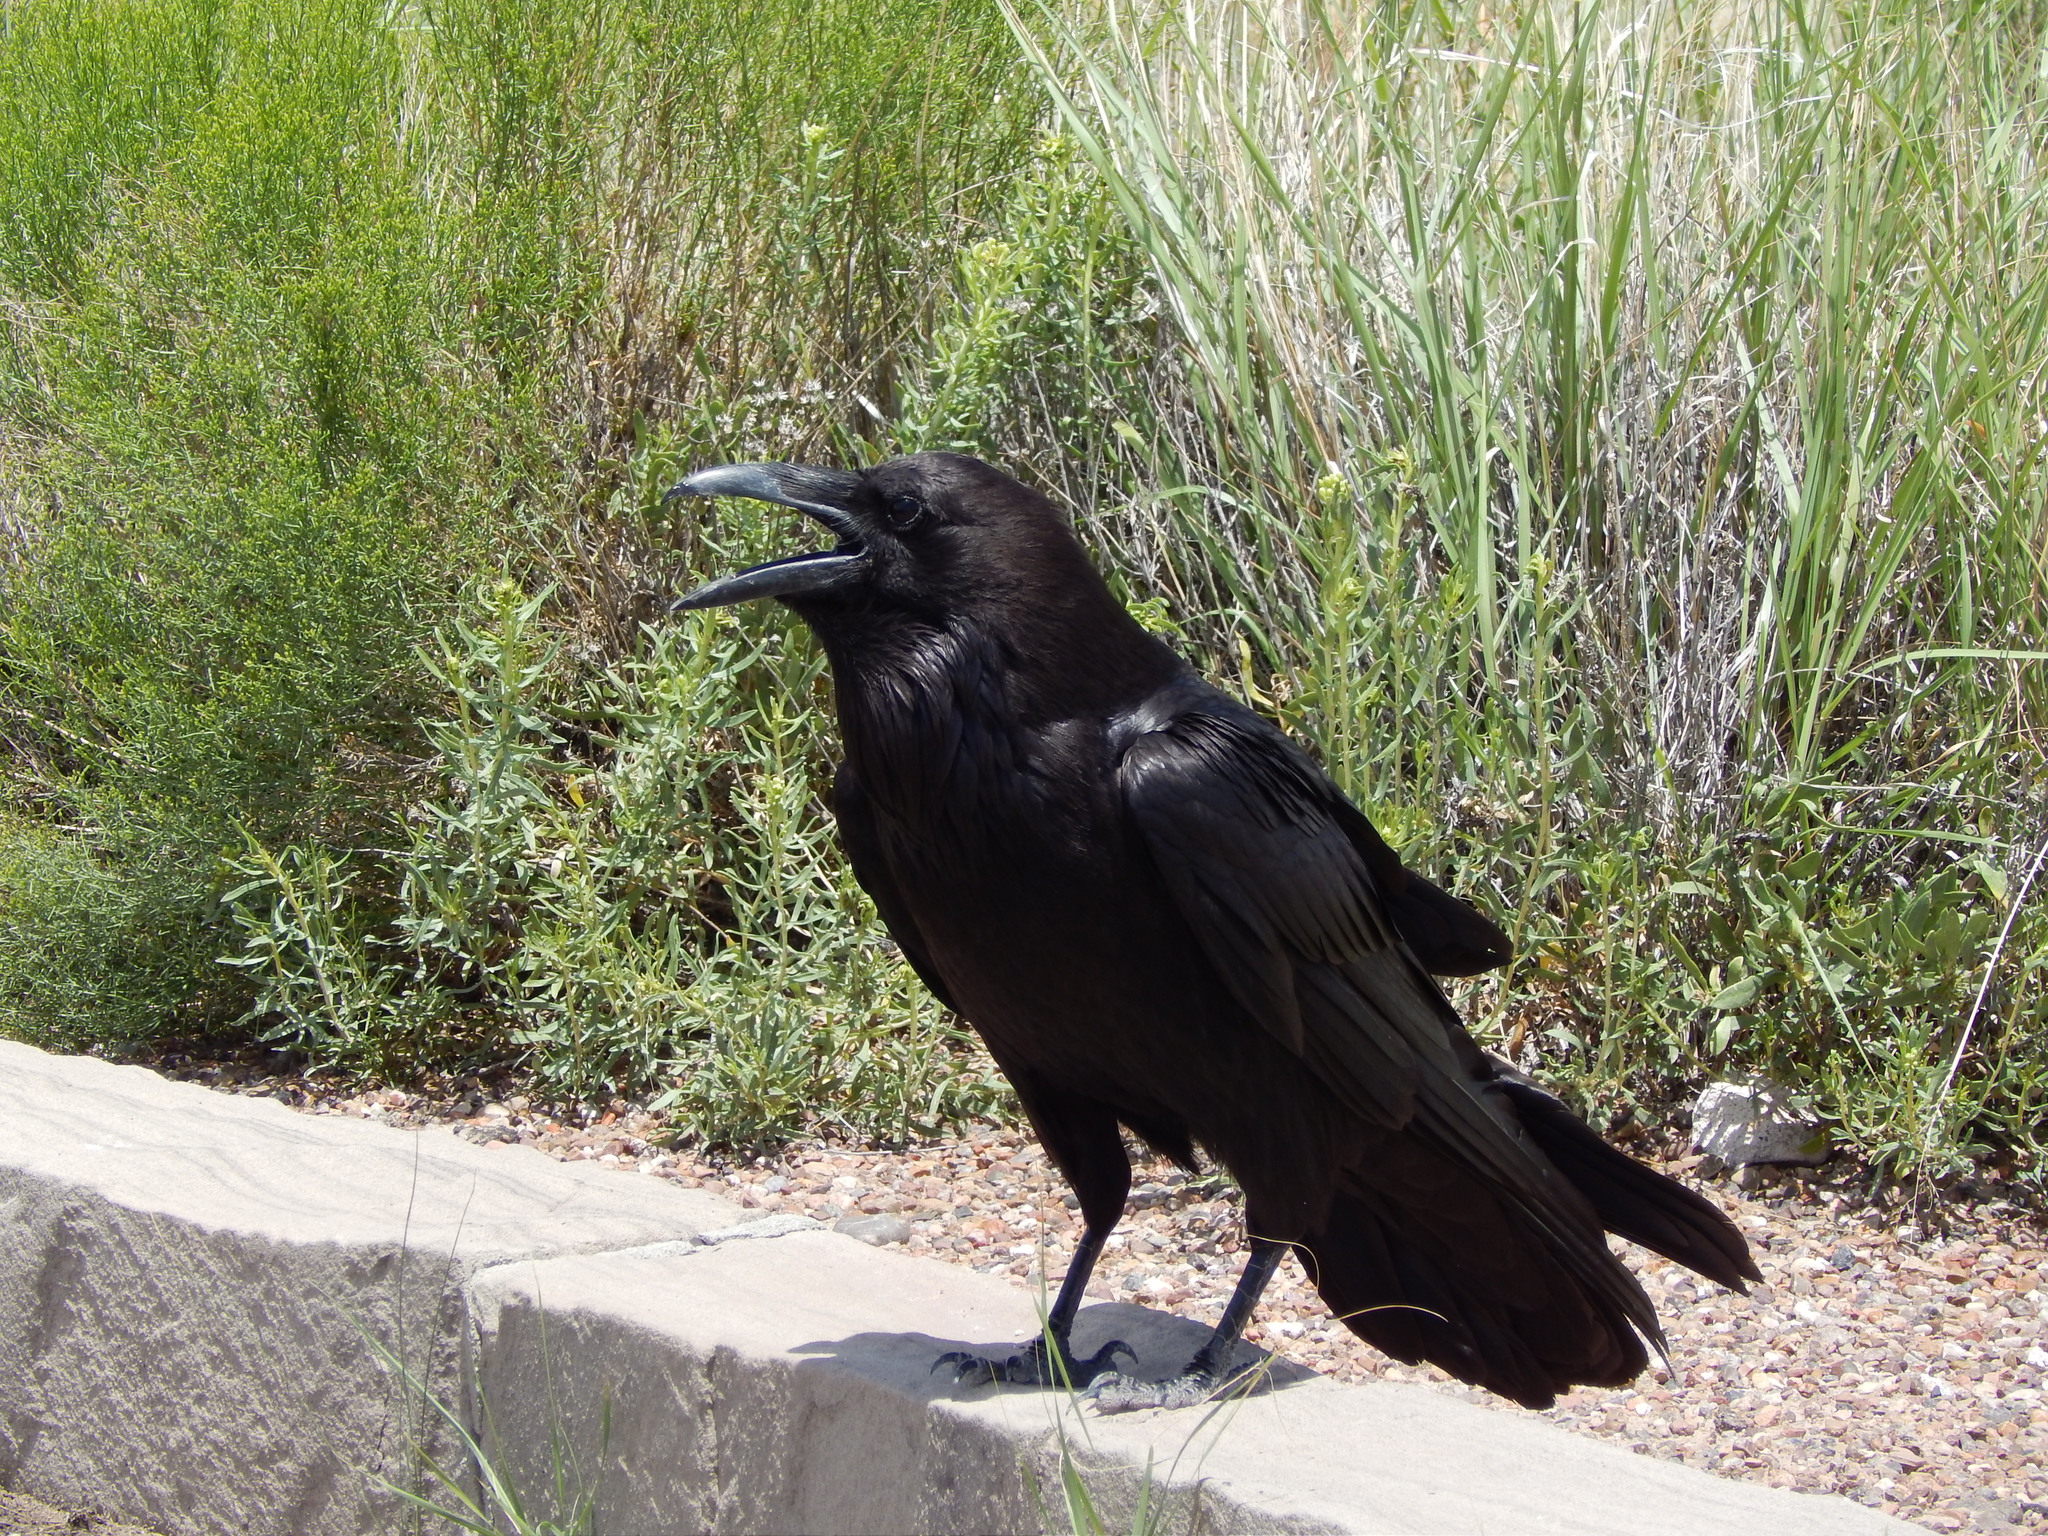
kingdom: Animalia
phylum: Chordata
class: Aves
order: Passeriformes
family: Corvidae
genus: Corvus
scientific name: Corvus corax
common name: Common raven
